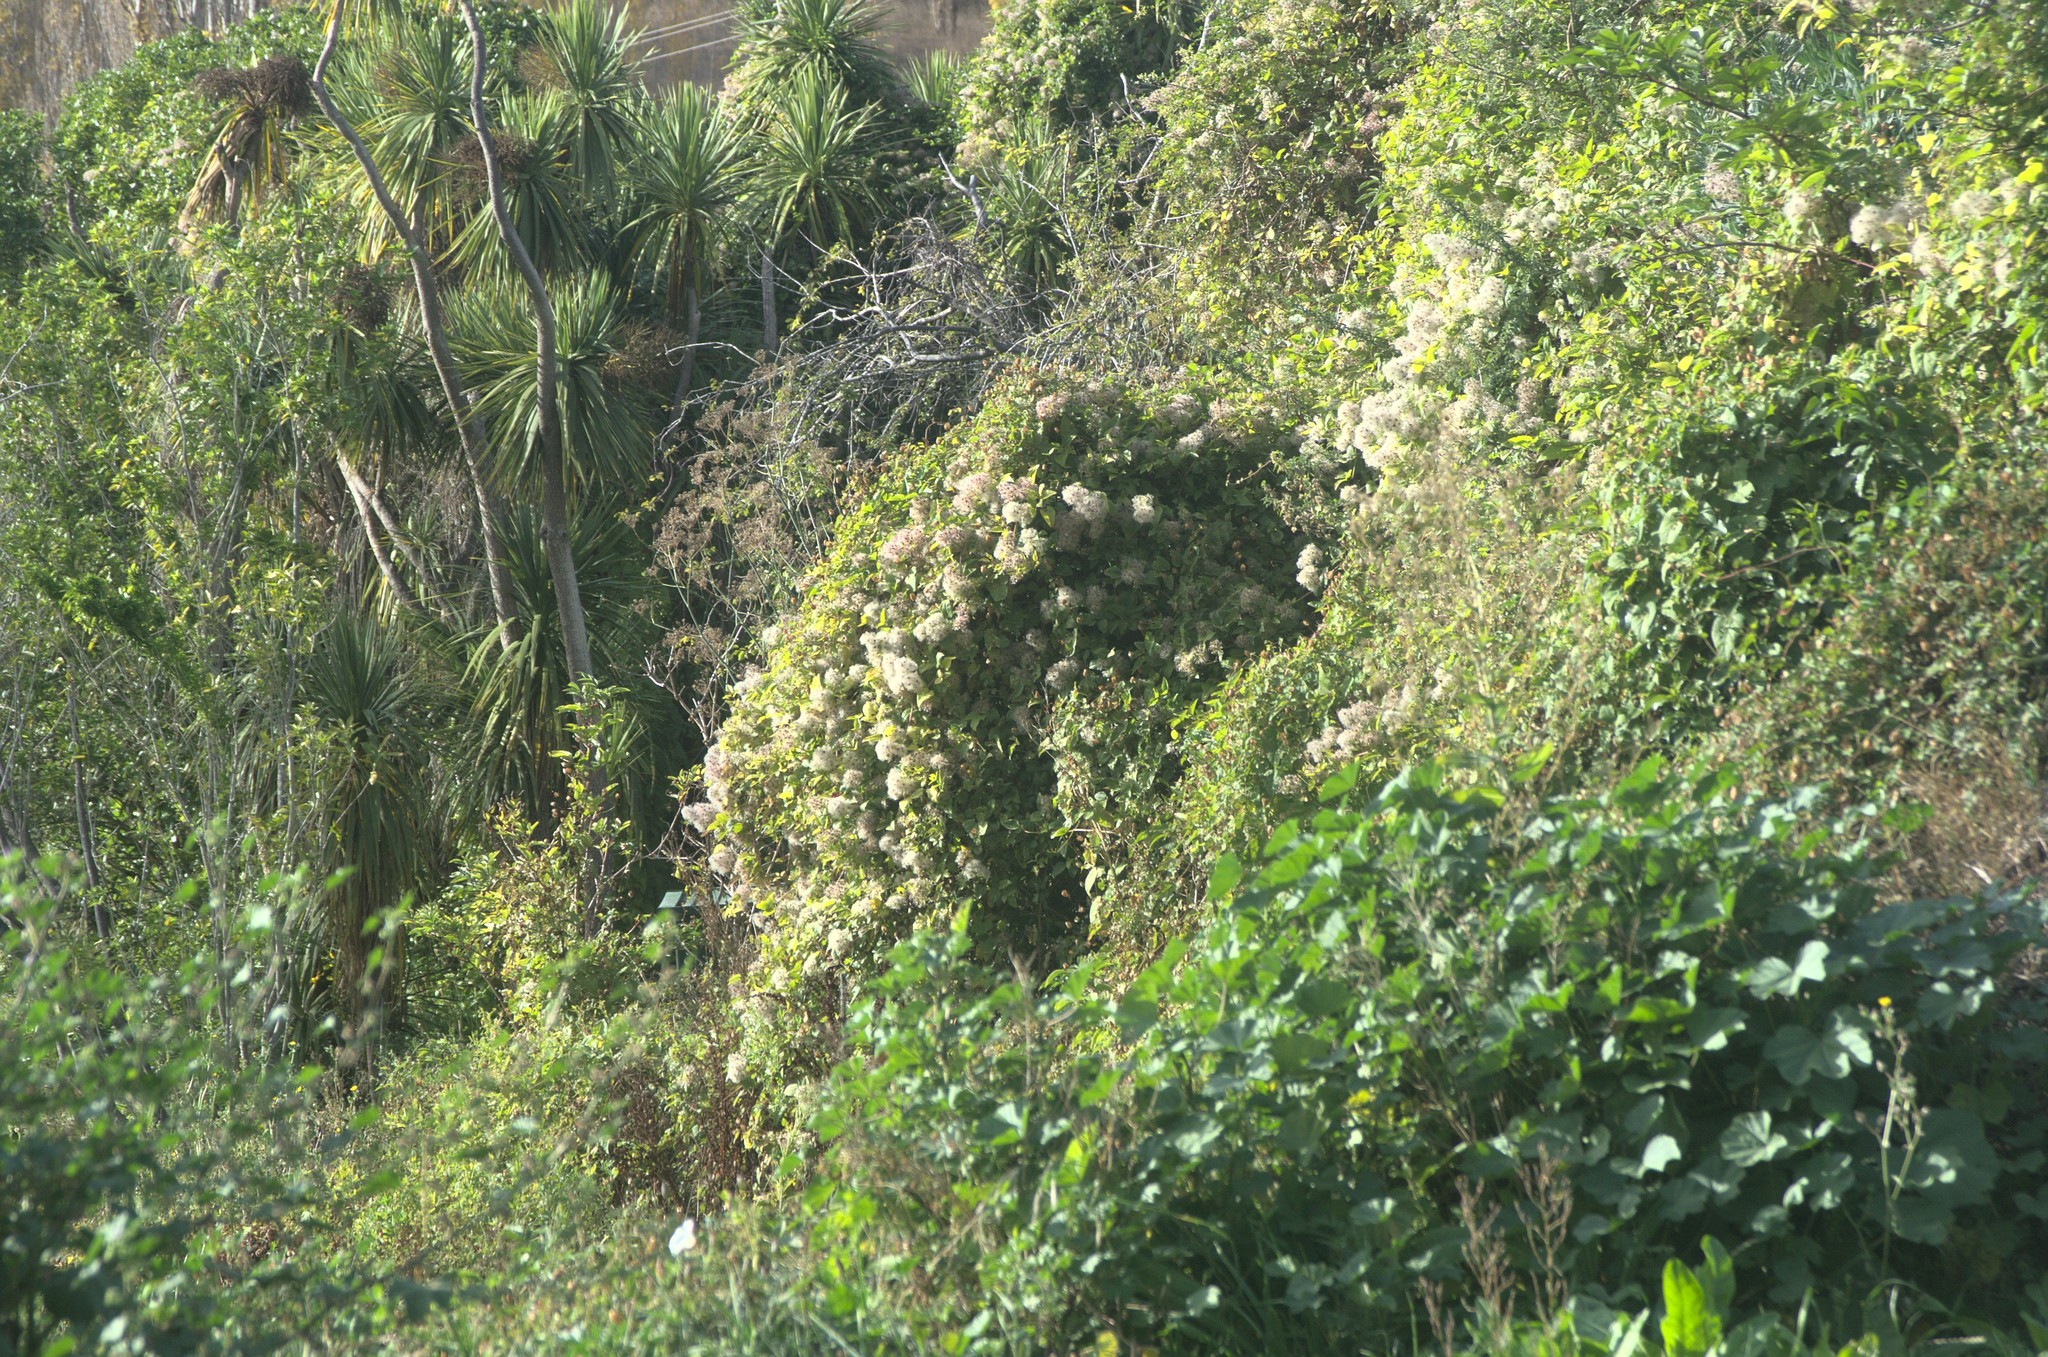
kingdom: Plantae
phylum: Tracheophyta
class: Magnoliopsida
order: Ranunculales
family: Ranunculaceae
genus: Clematis
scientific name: Clematis vitalba
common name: Evergreen clematis
